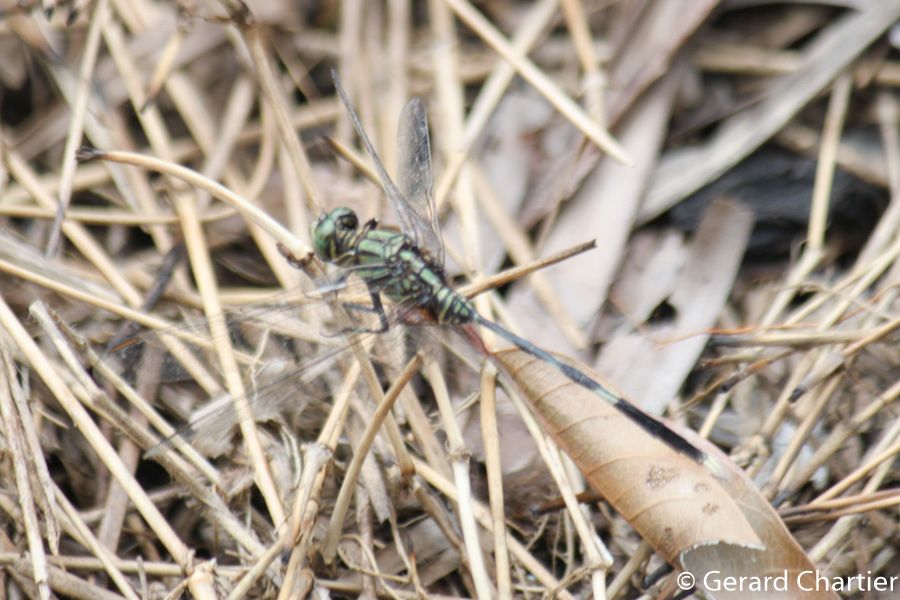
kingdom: Animalia
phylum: Arthropoda
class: Insecta
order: Odonata
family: Libellulidae
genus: Orthetrum
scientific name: Orthetrum sabina
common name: Slender skimmer
